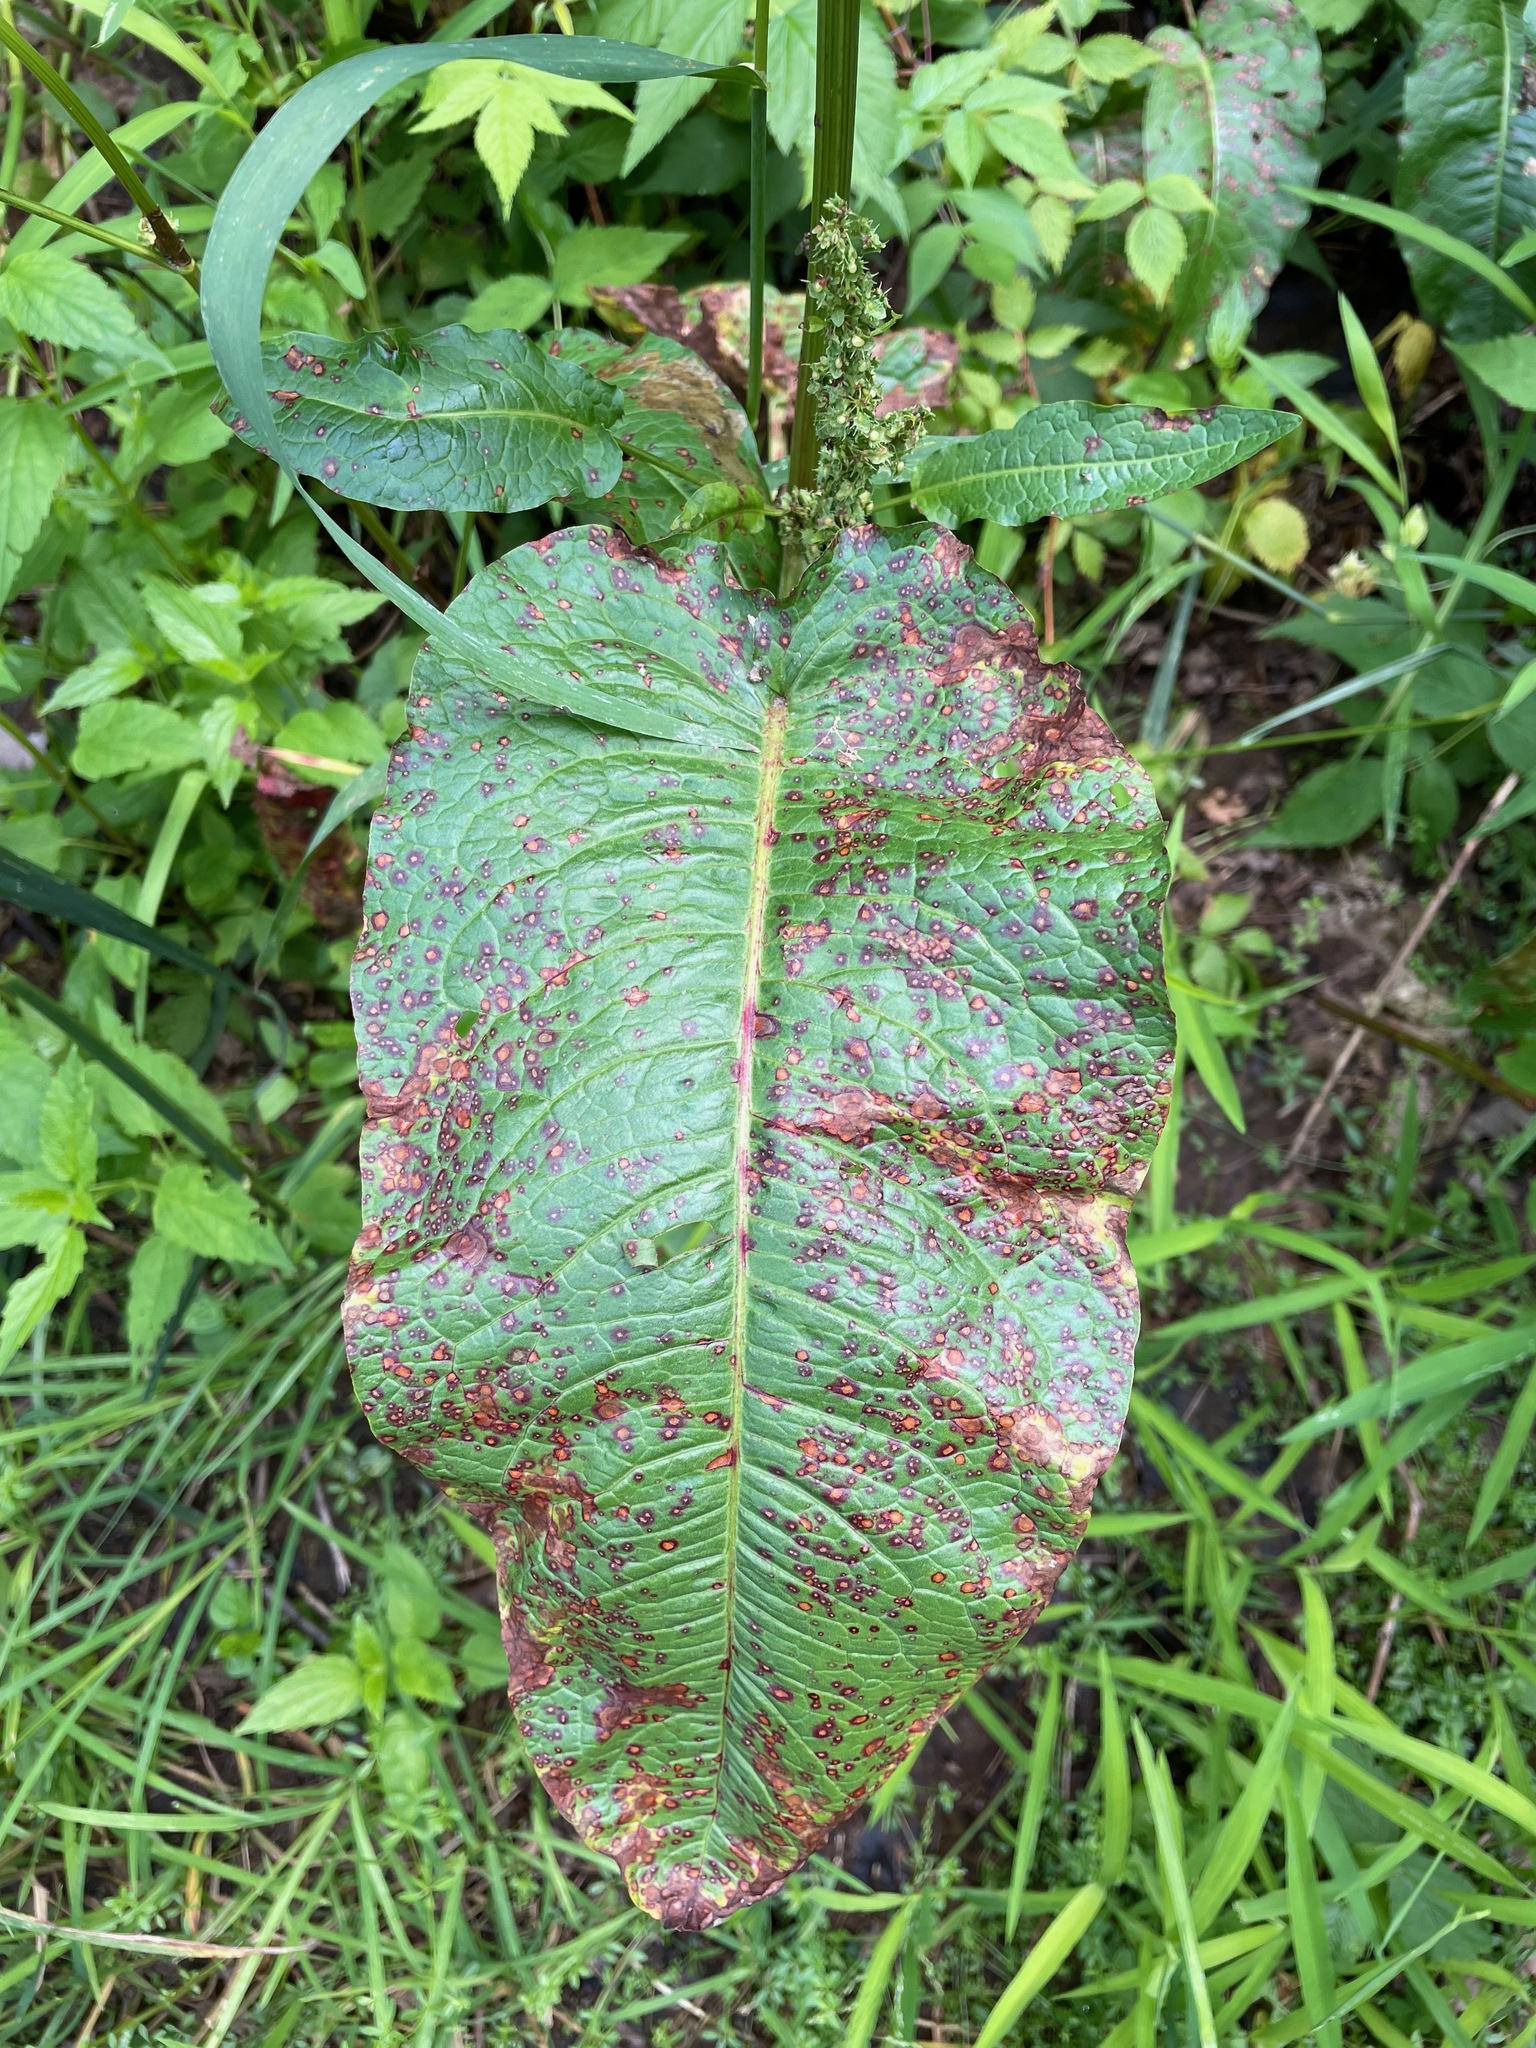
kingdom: Fungi
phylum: Ascomycota
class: Dothideomycetes
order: Mycosphaerellales
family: Mycosphaerellaceae
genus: Ramularia
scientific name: Ramularia rubella
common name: Red dock spot
